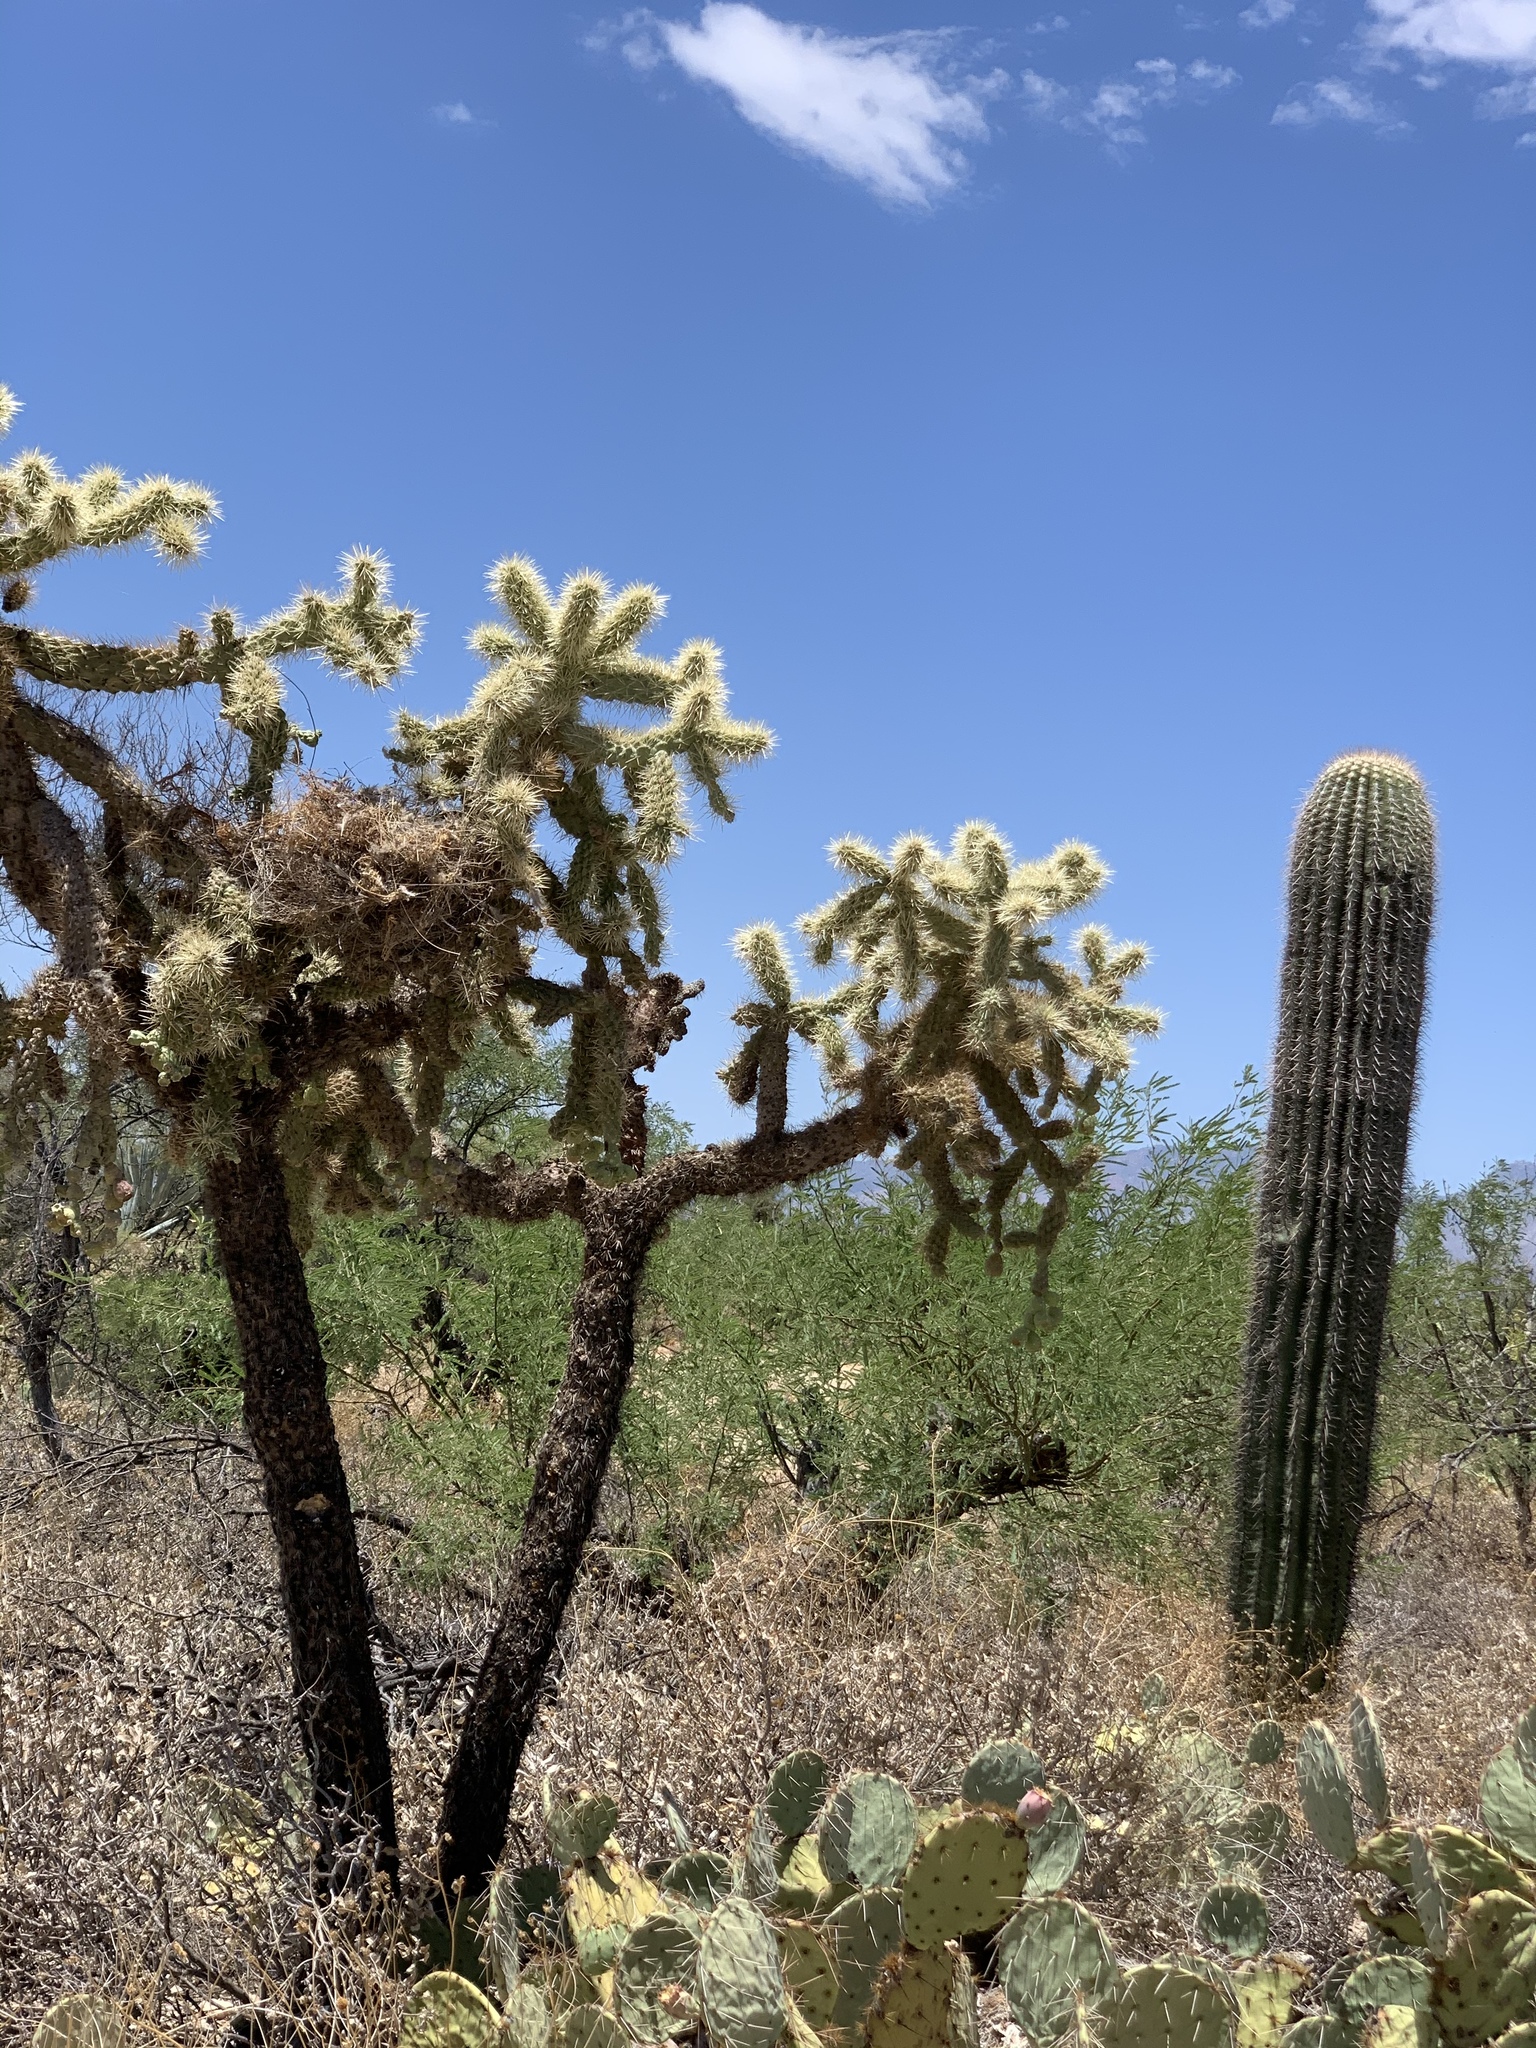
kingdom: Plantae
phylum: Tracheophyta
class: Magnoliopsida
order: Caryophyllales
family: Cactaceae
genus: Cylindropuntia
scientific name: Cylindropuntia fulgida
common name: Jumping cholla
